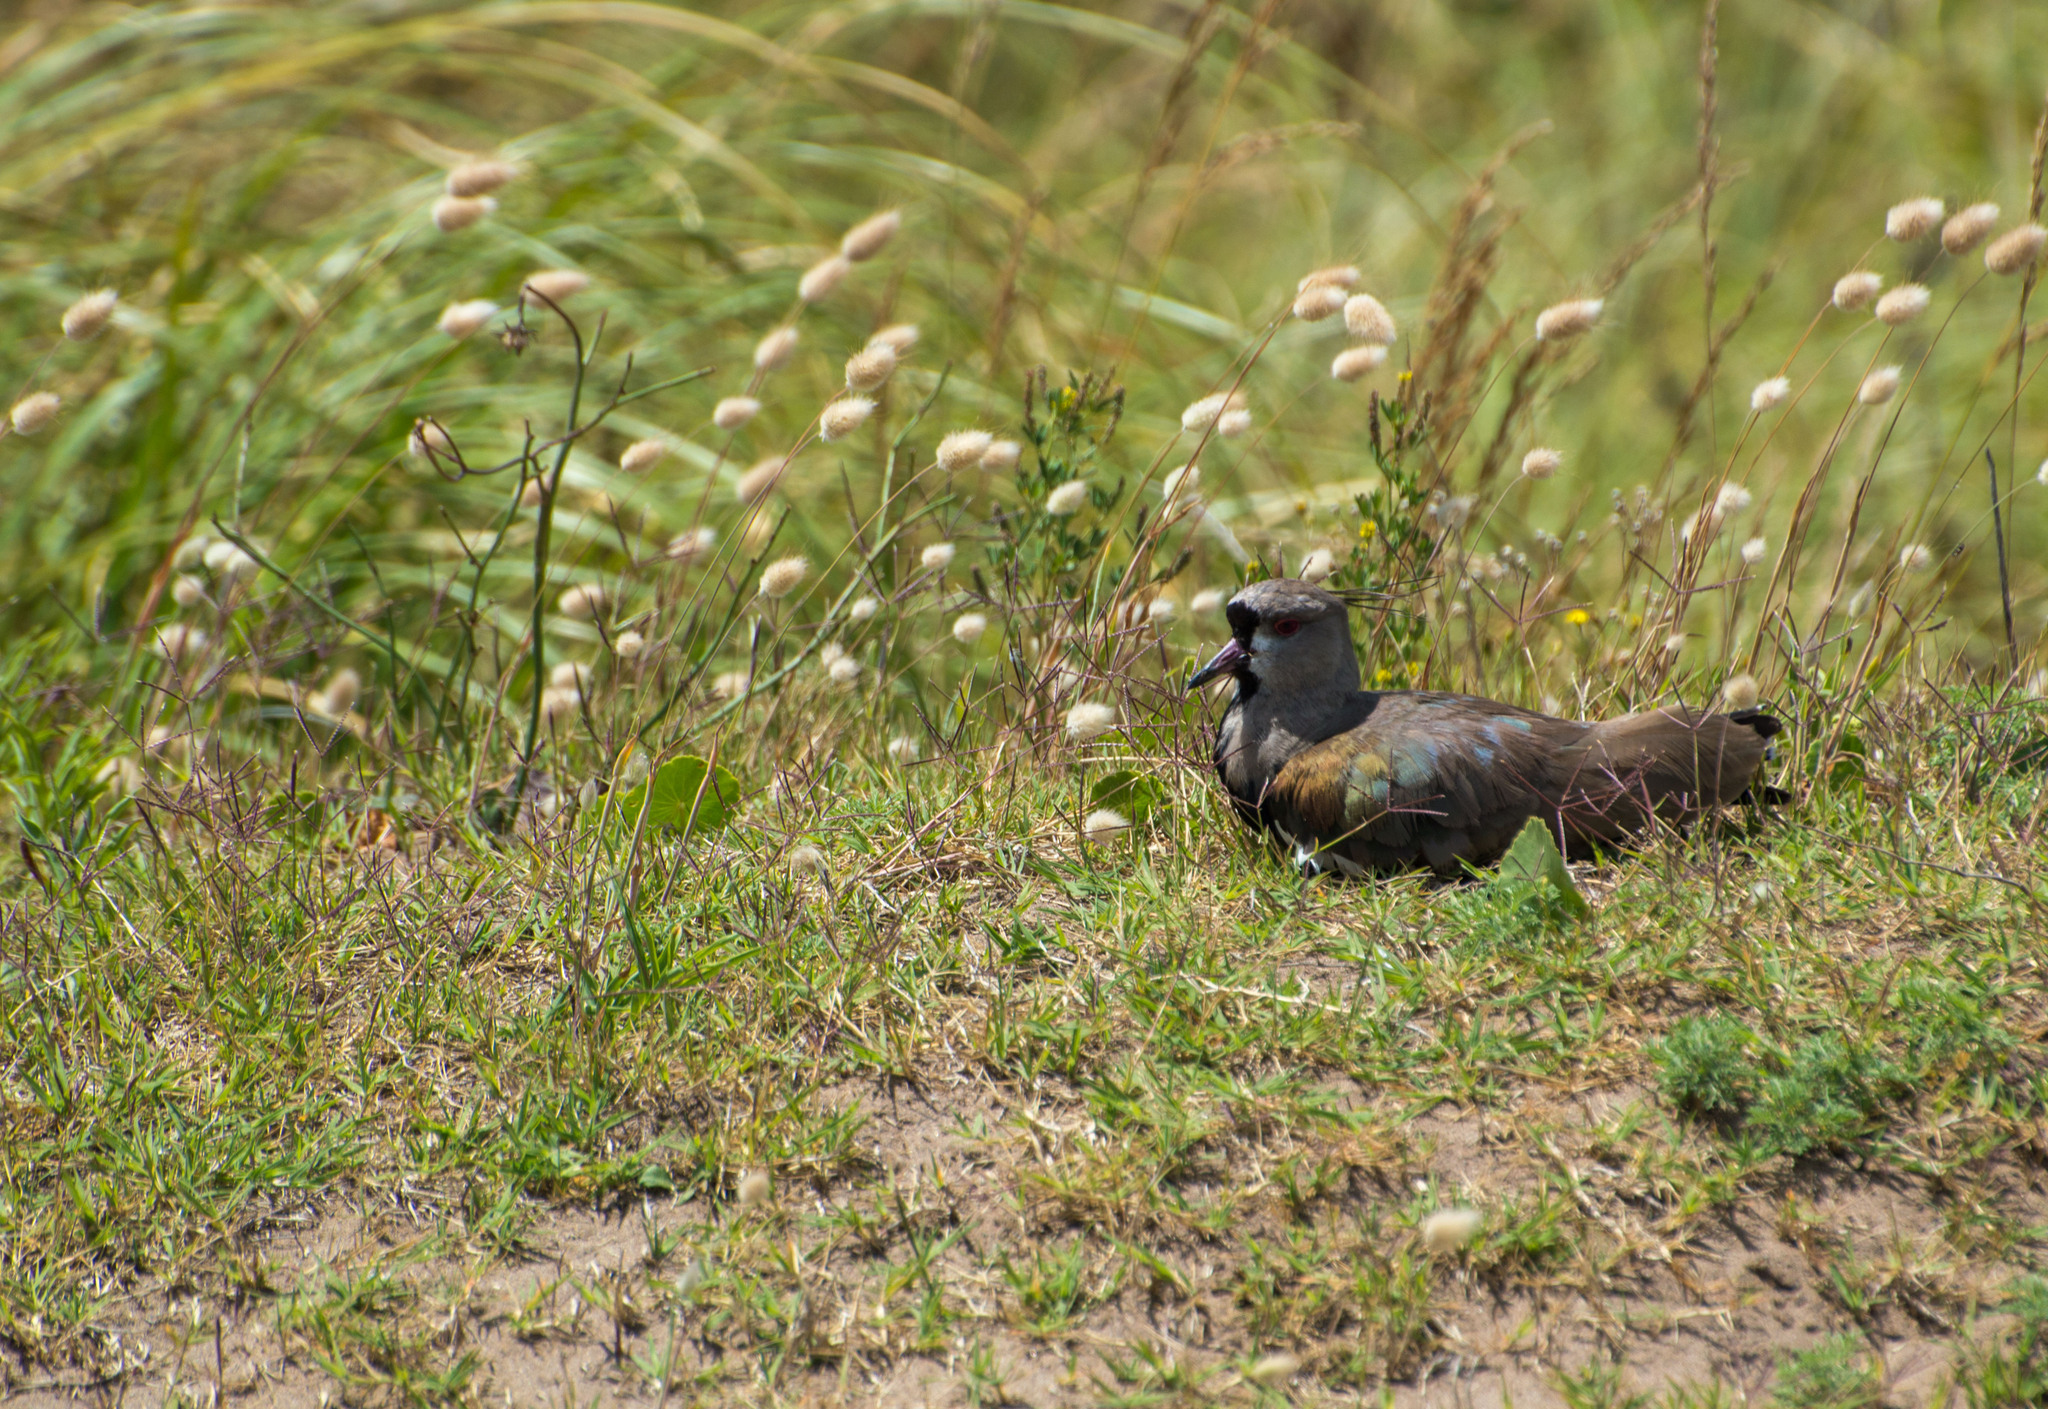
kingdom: Animalia
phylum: Chordata
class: Aves
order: Charadriiformes
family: Charadriidae
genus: Vanellus
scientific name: Vanellus chilensis
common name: Southern lapwing
